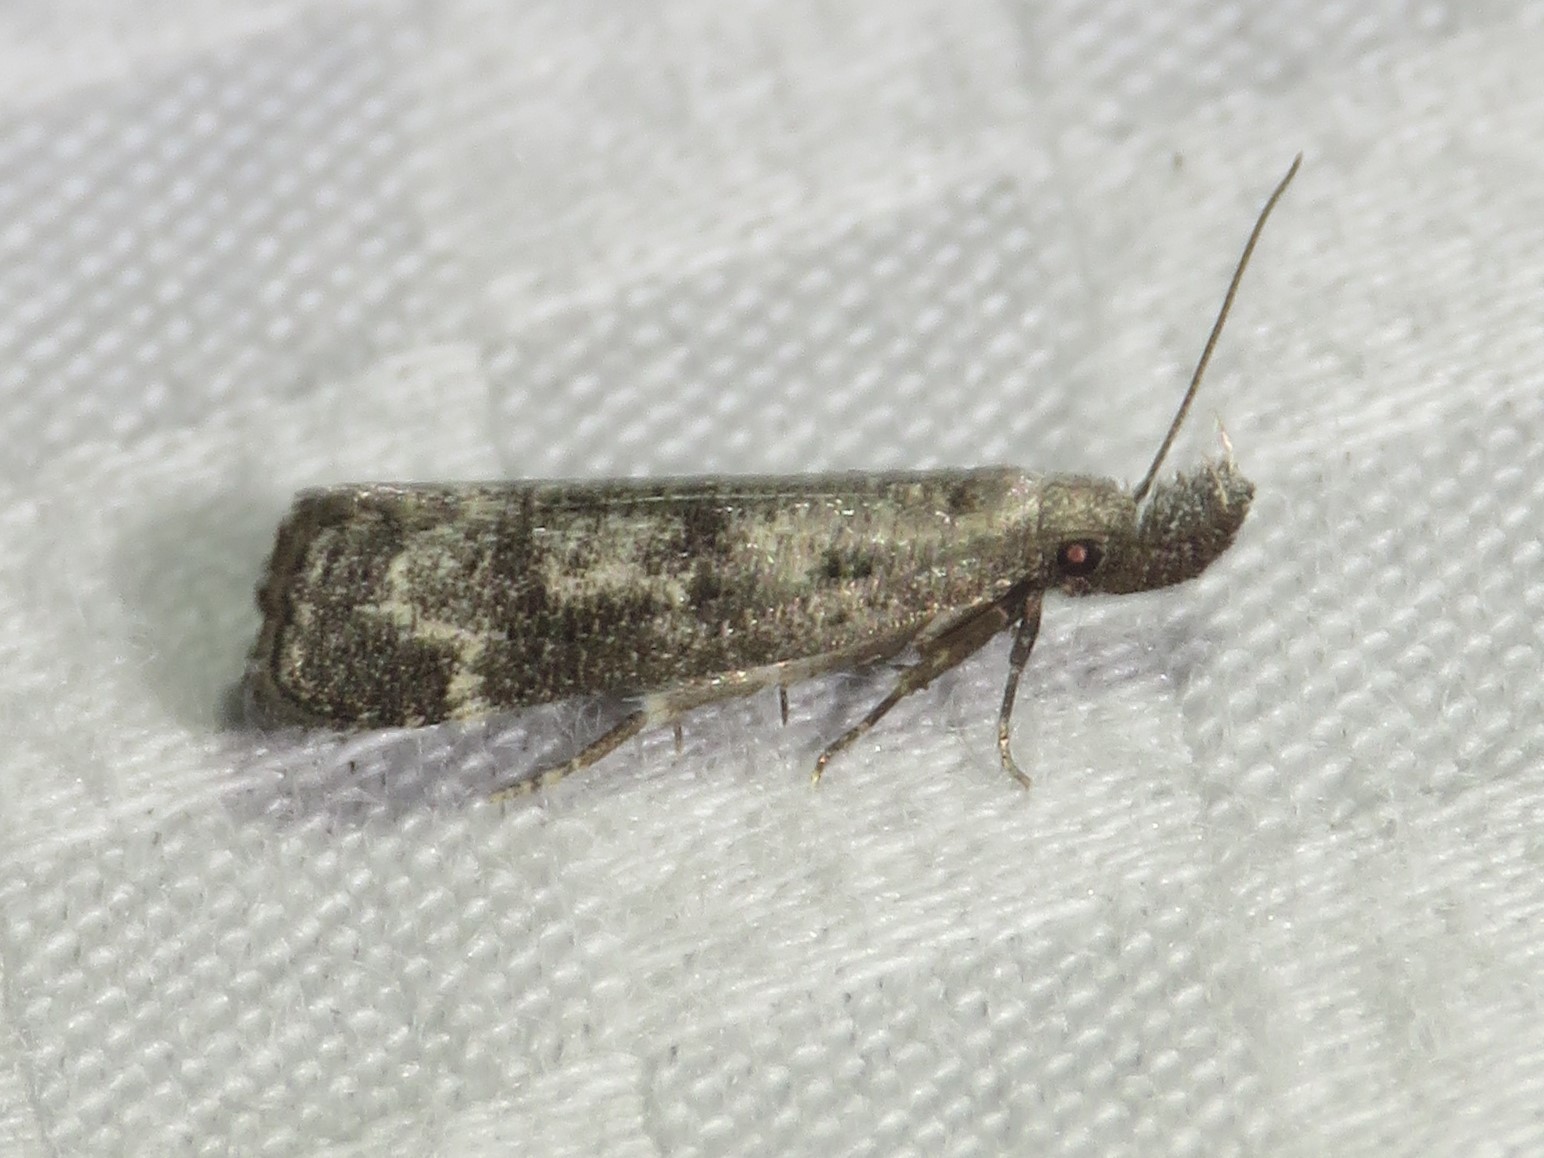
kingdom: Animalia
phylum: Arthropoda
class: Insecta
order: Lepidoptera
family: Gelechiidae
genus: Dichomeris
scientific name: Dichomeris inversella
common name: Inverse dichomeris moth
